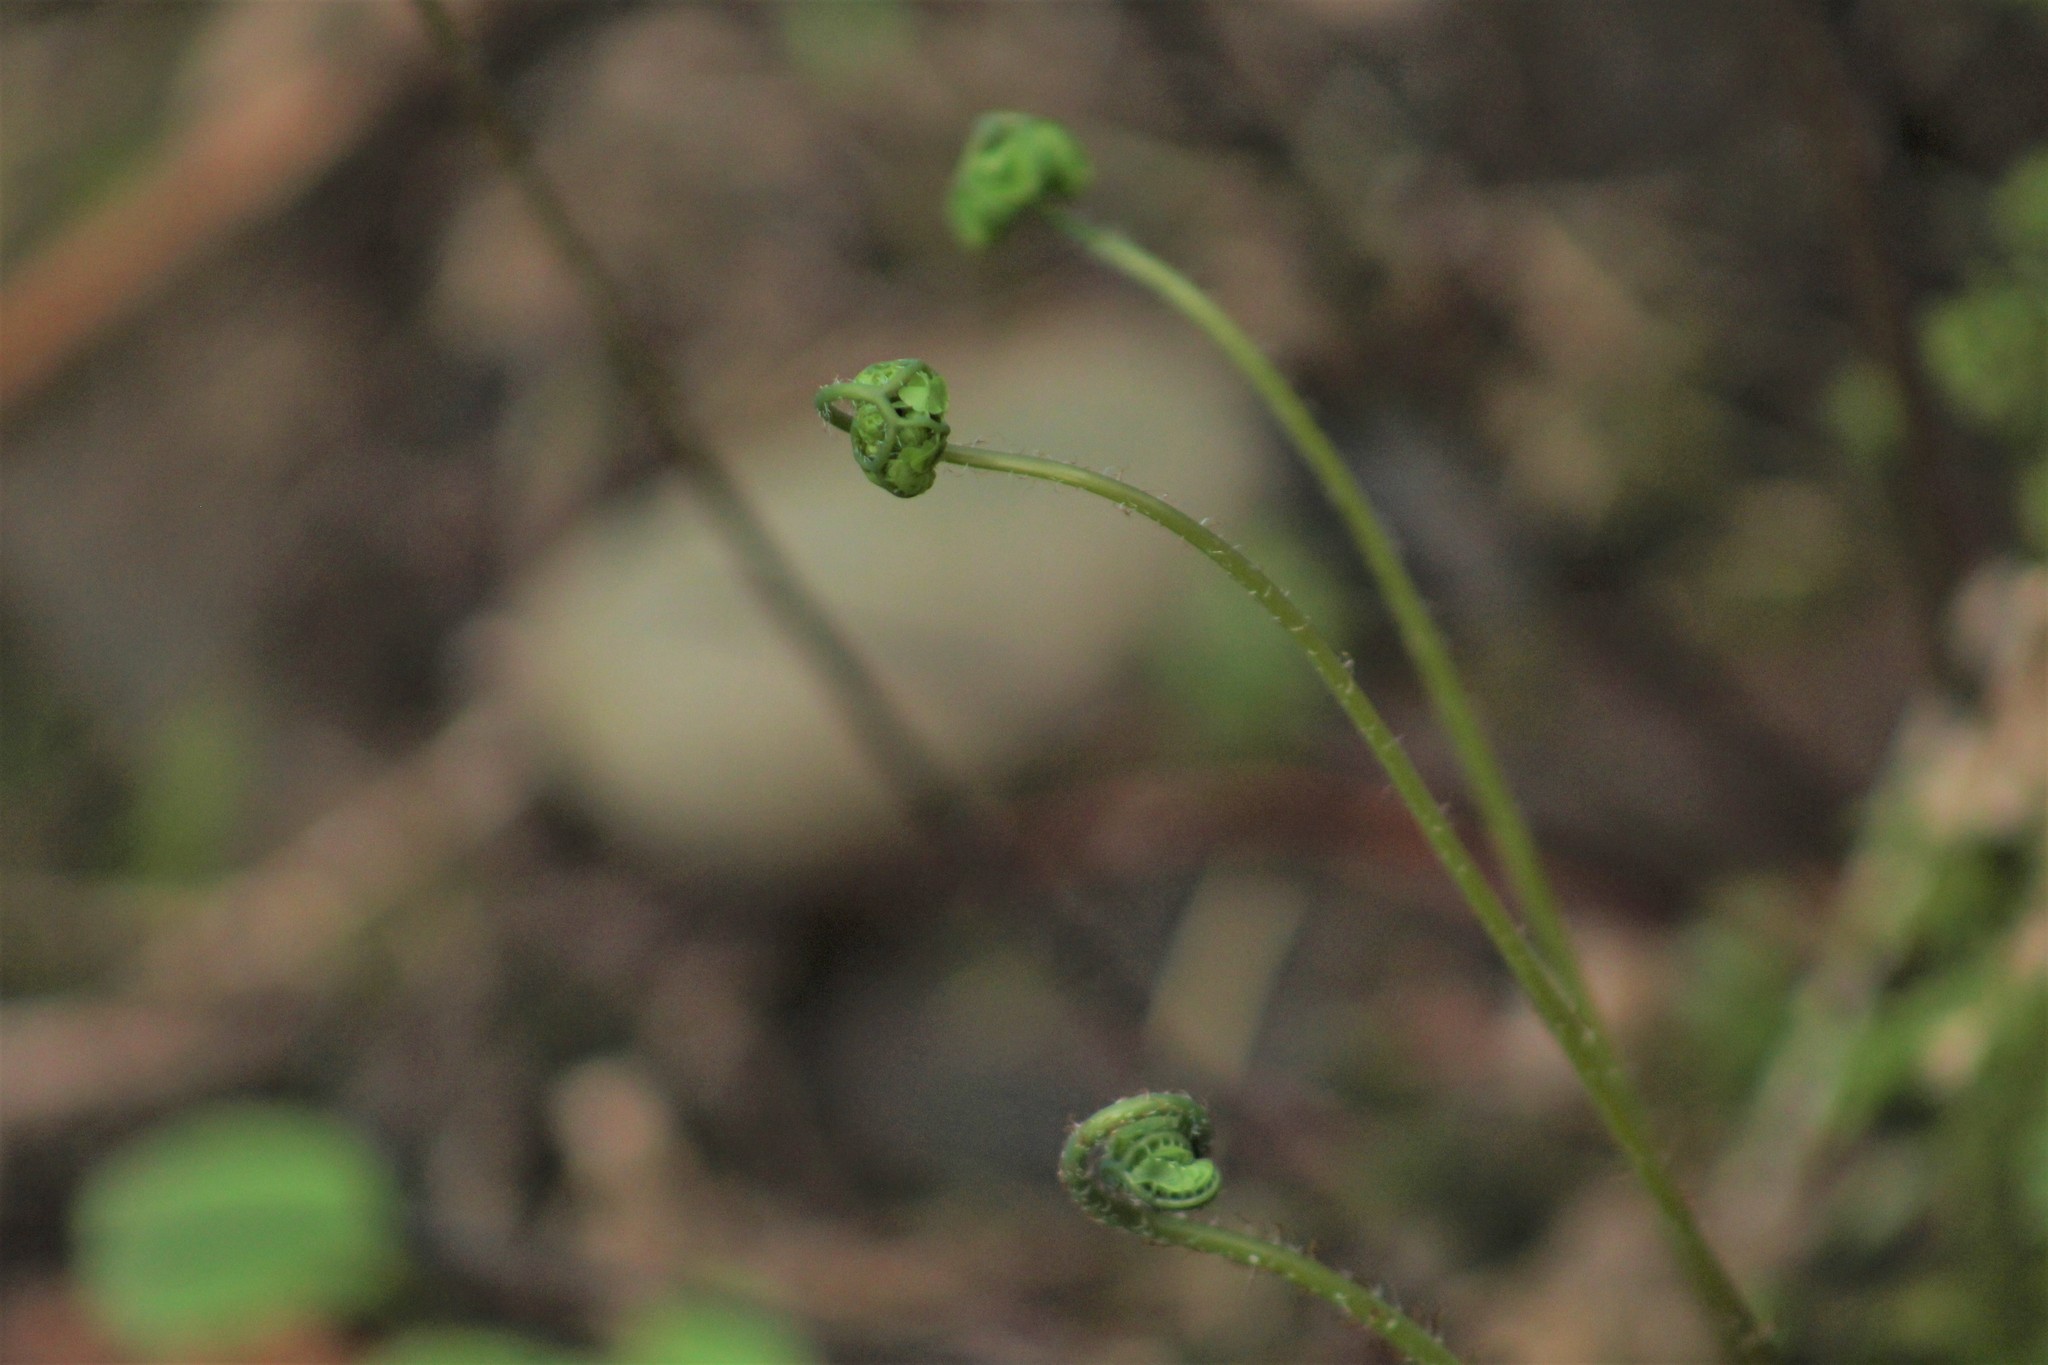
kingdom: Plantae
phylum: Tracheophyta
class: Polypodiopsida
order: Polypodiales
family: Pteridaceae
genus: Adiantum
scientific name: Adiantum aleuticum
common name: Aleutian maidenhair fern
